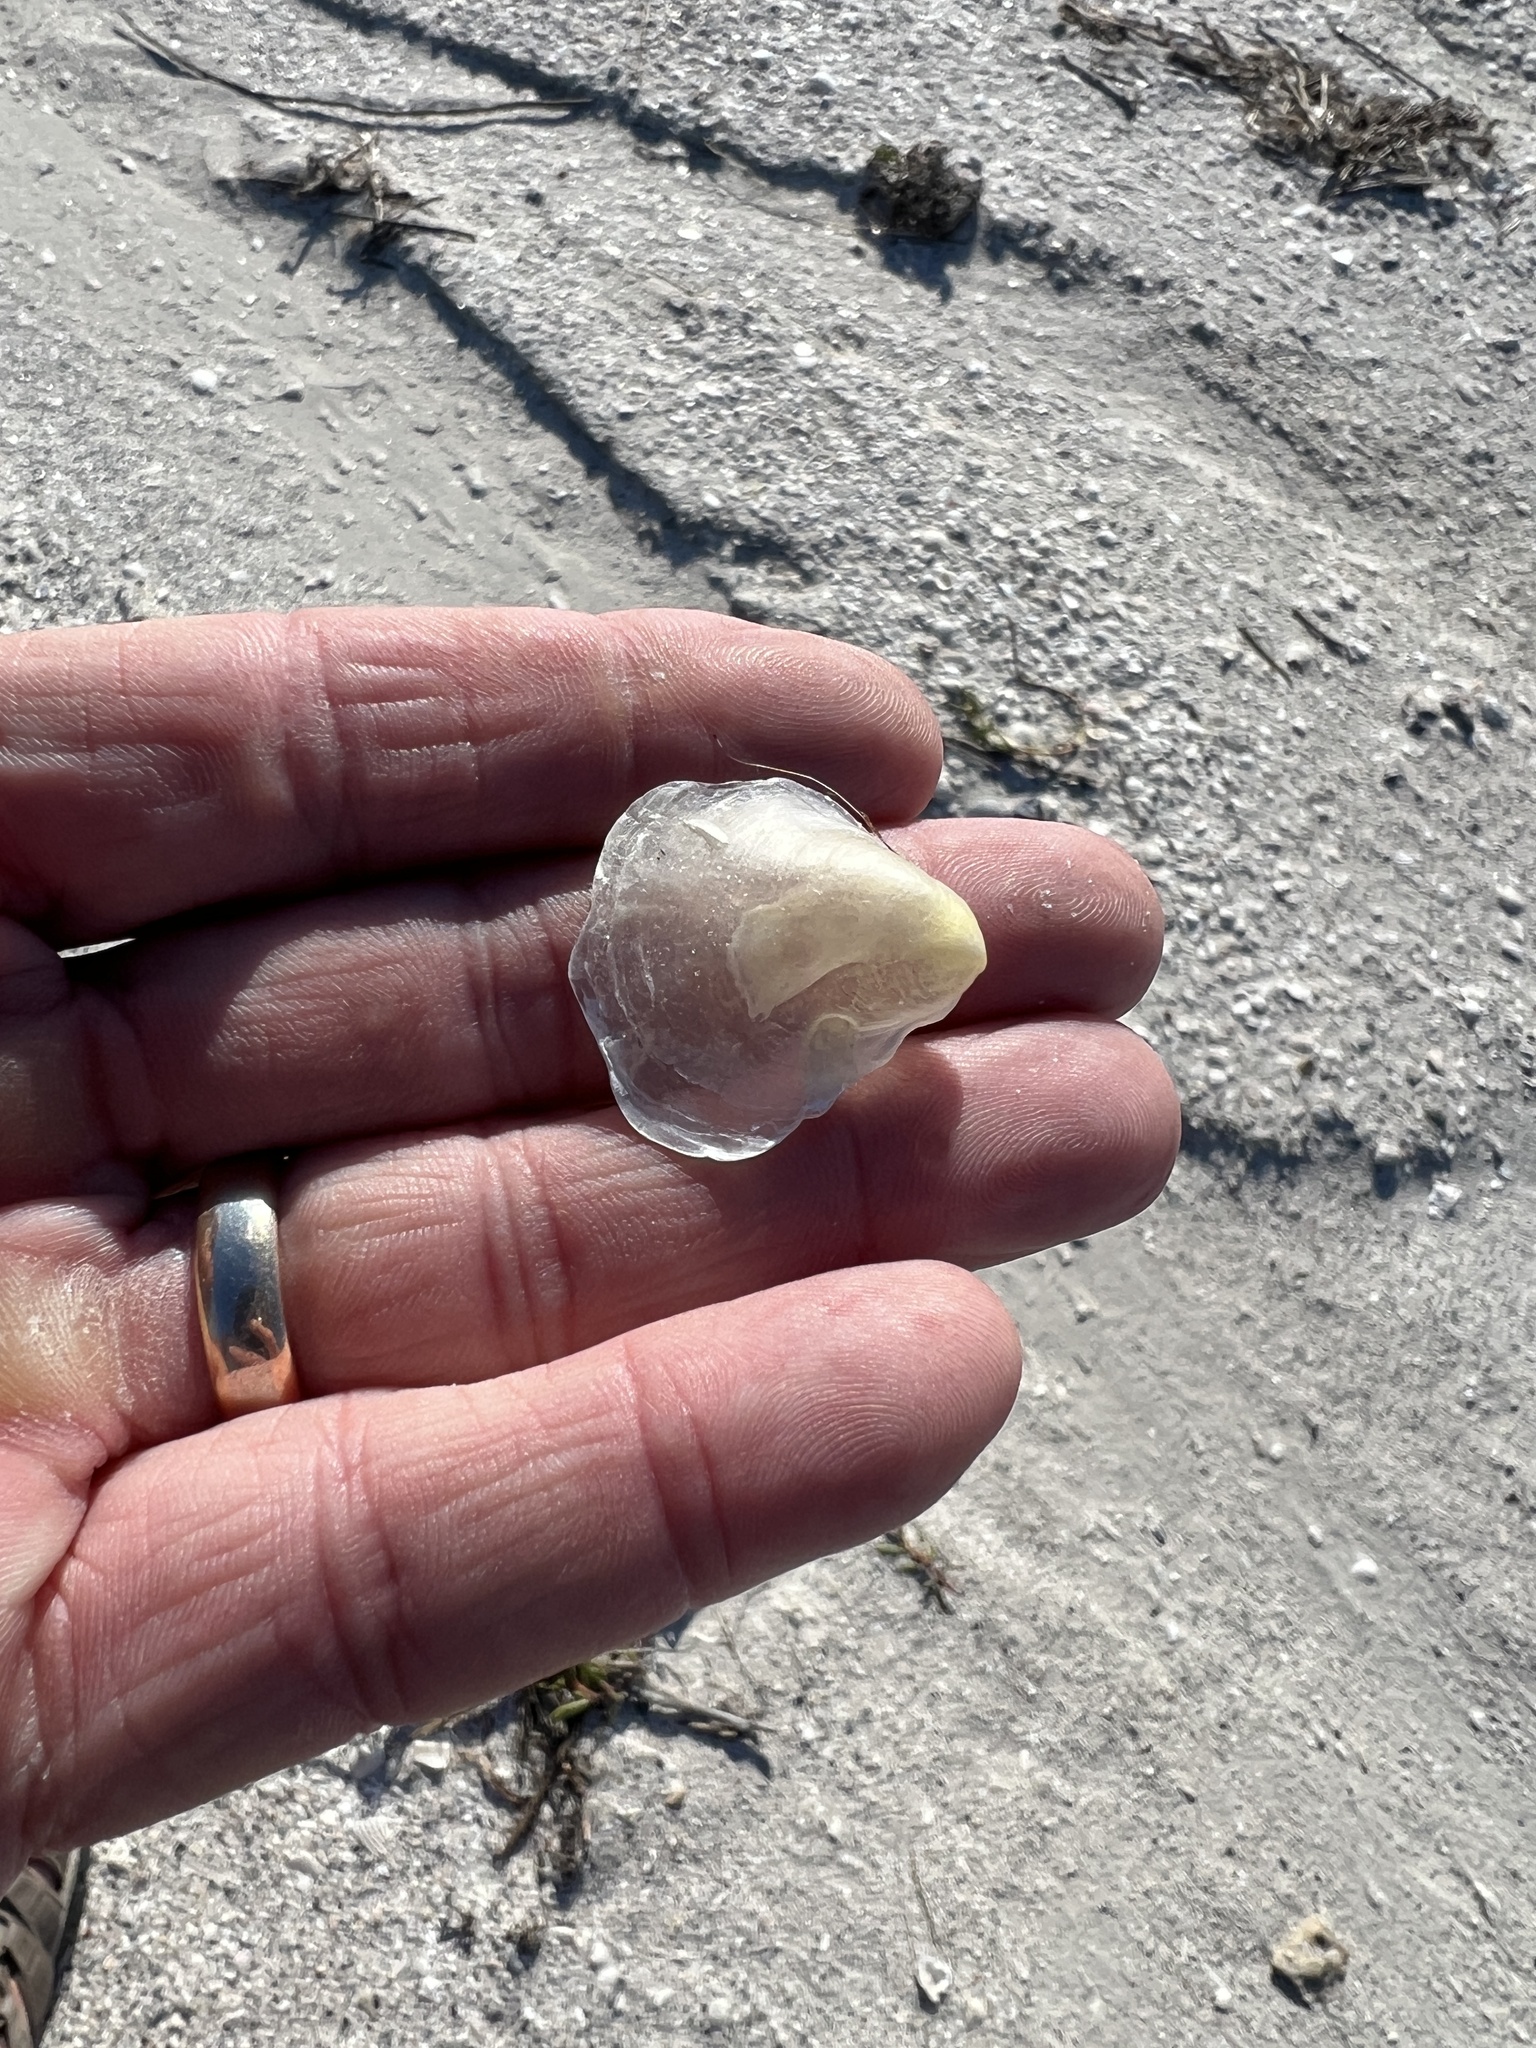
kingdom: Animalia
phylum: Mollusca
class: Bivalvia
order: Pectinida
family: Anomiidae
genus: Anomia
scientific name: Anomia simplex
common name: Common jingle shell
